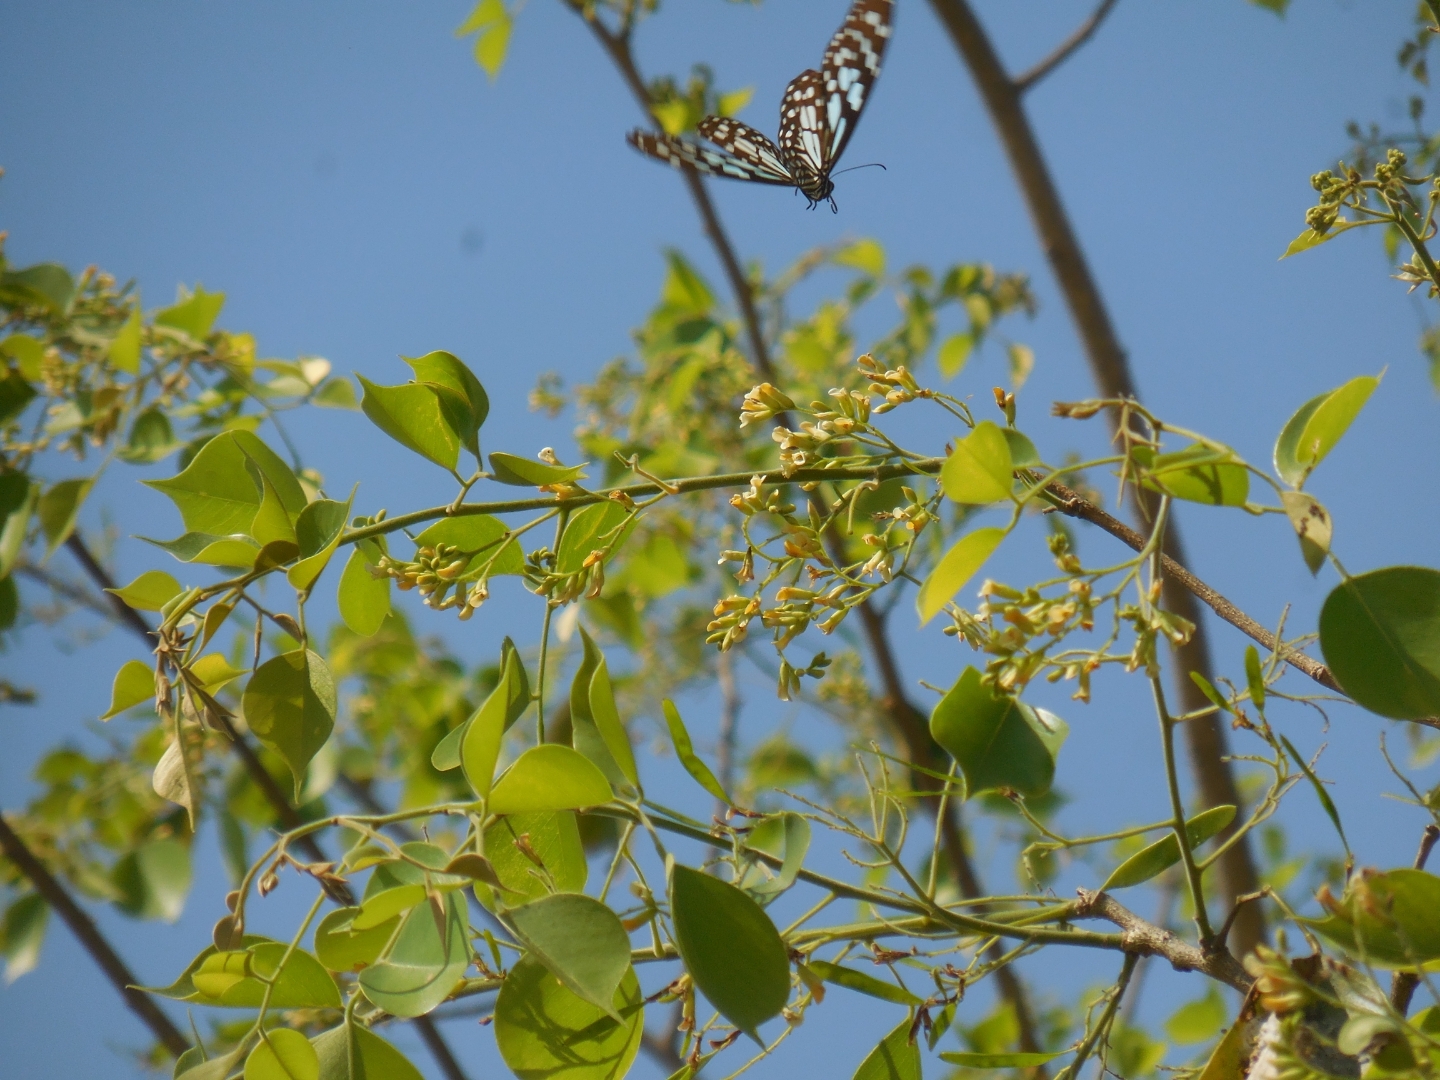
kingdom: Animalia
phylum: Arthropoda
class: Insecta
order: Lepidoptera
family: Nymphalidae
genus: Tirumala
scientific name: Tirumala limniace
